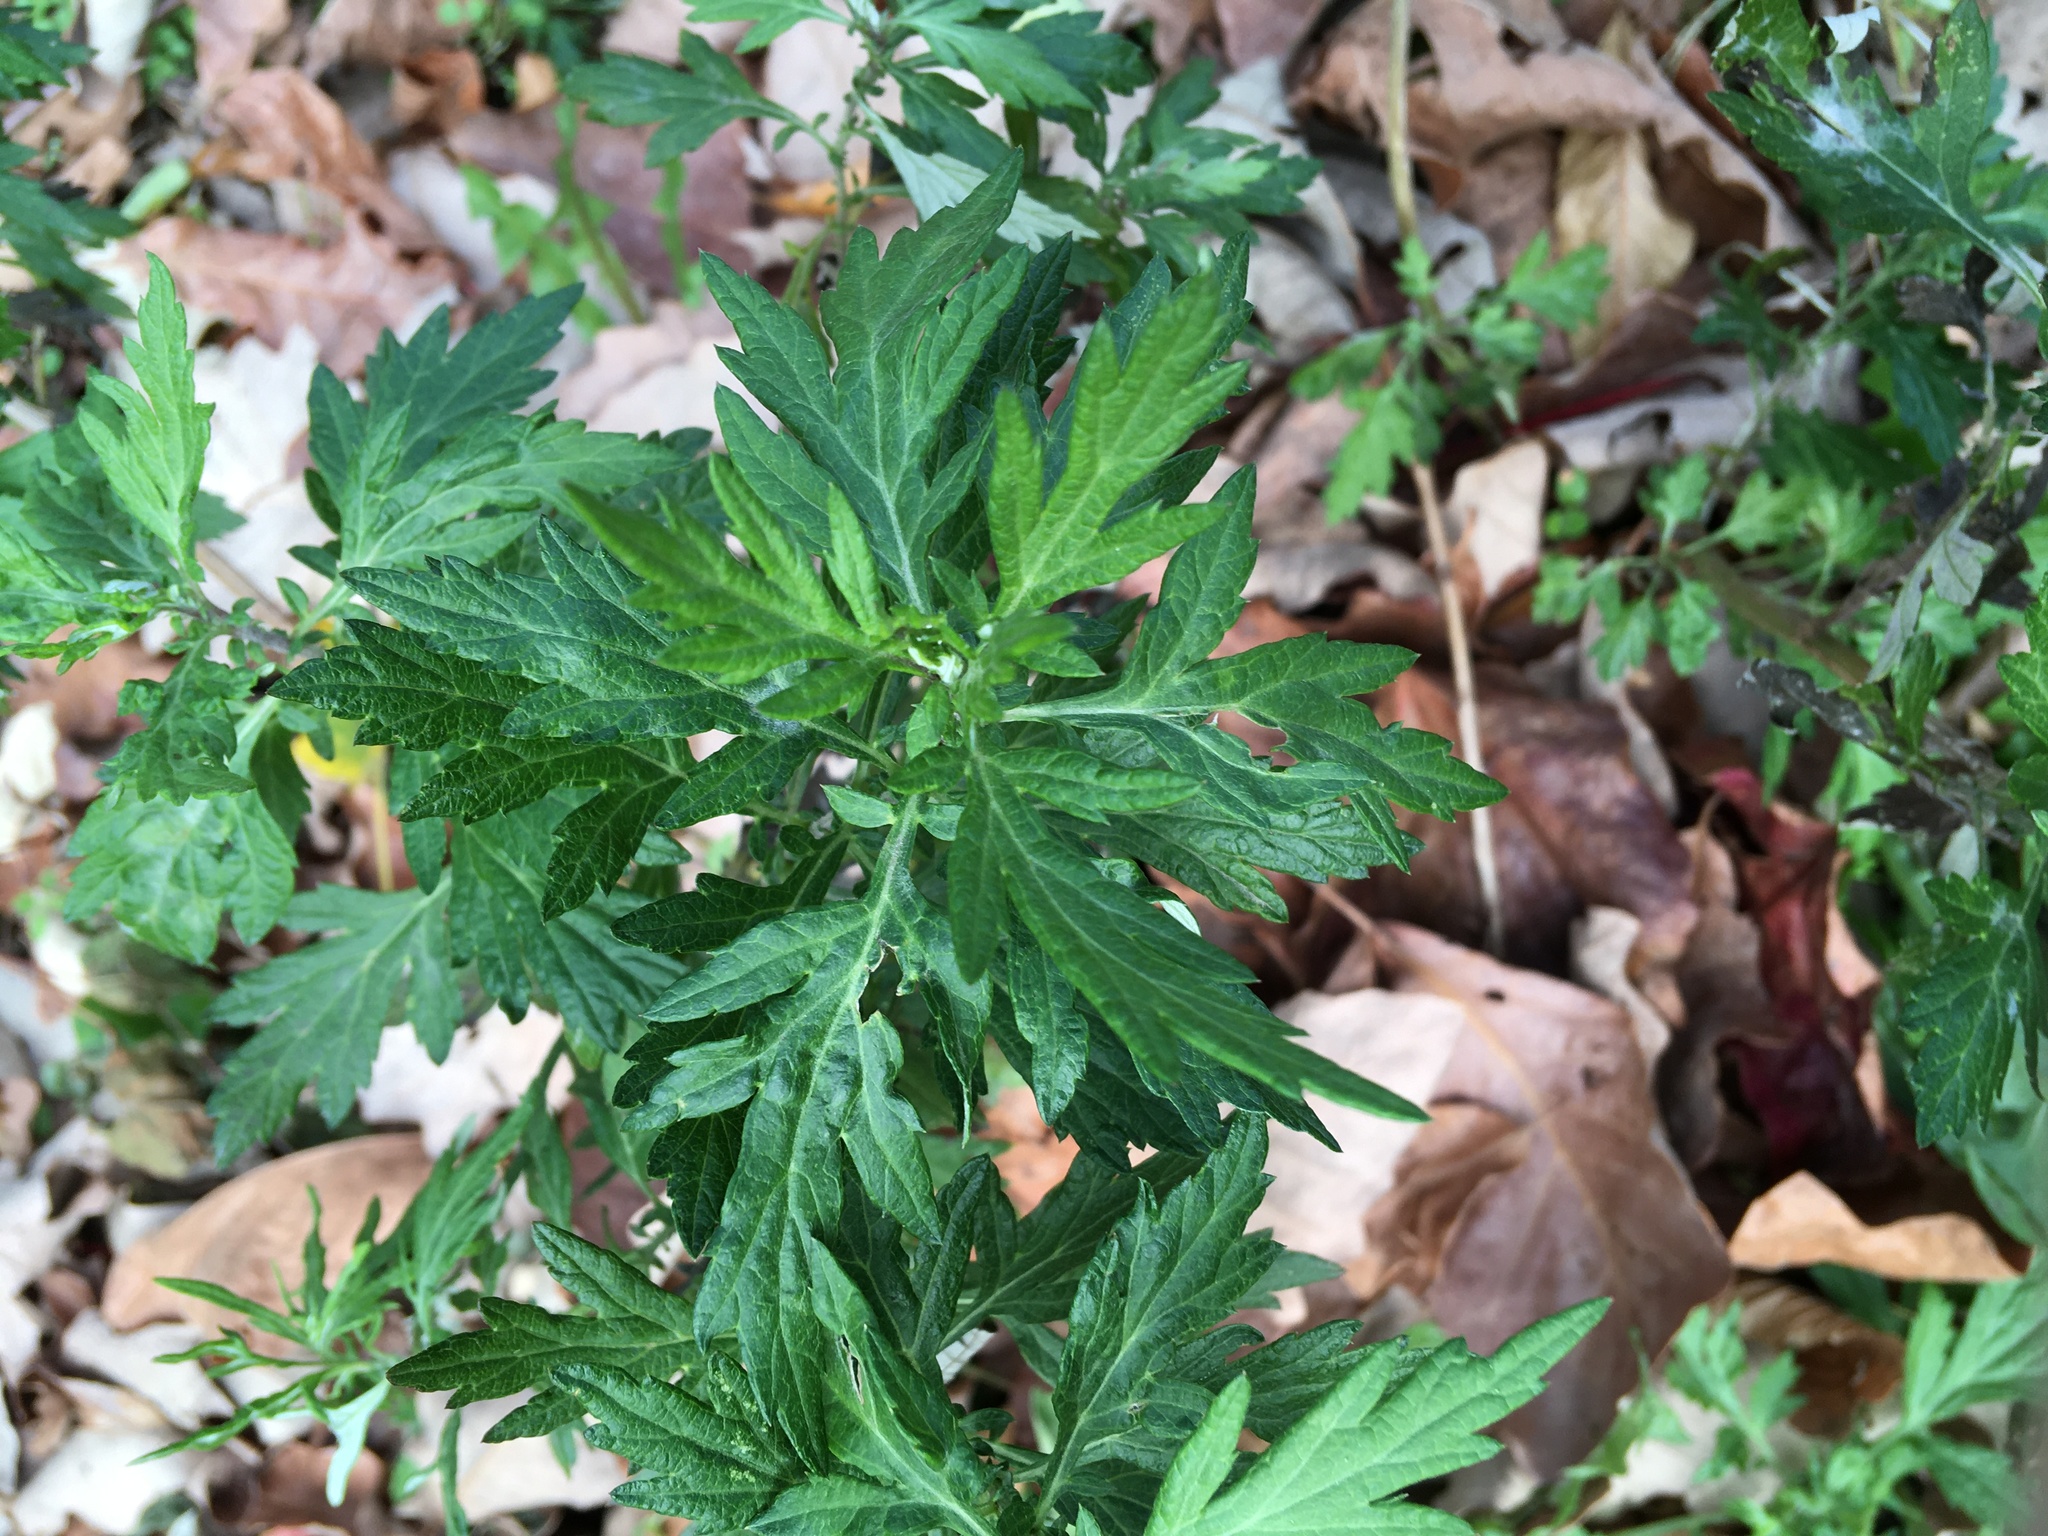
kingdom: Plantae
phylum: Tracheophyta
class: Magnoliopsida
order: Asterales
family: Asteraceae
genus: Artemisia
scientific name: Artemisia vulgaris
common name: Mugwort
